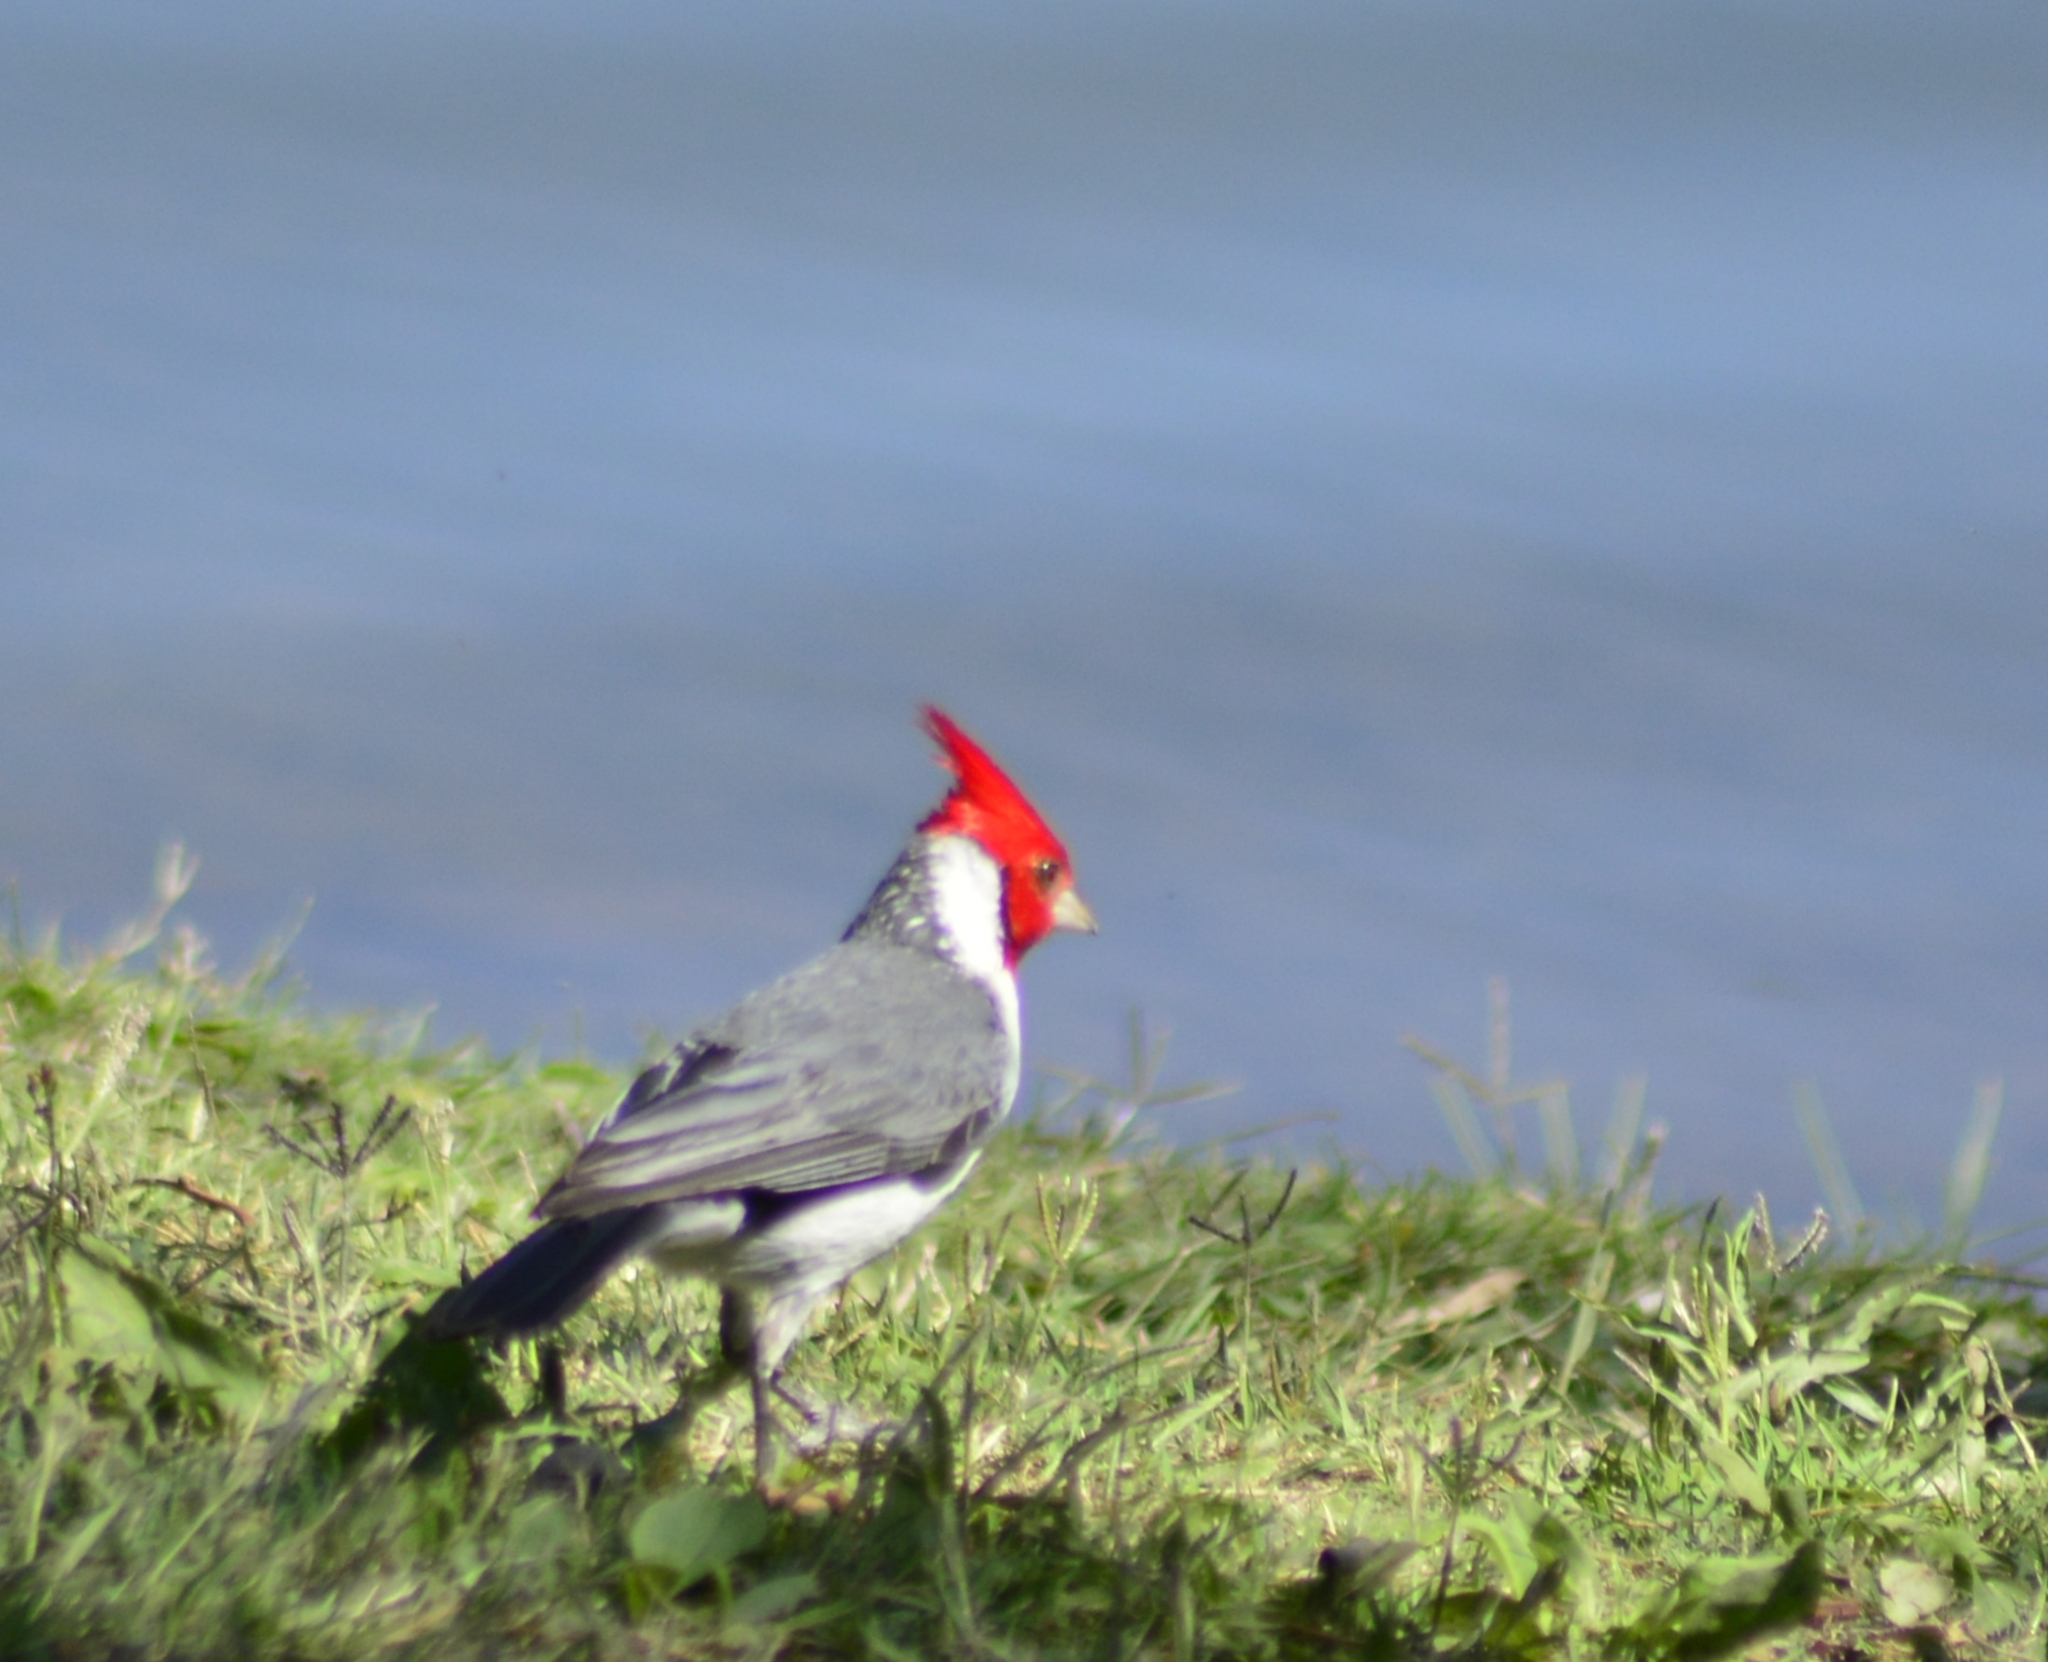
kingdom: Animalia
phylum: Chordata
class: Aves
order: Passeriformes
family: Thraupidae
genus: Paroaria
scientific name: Paroaria coronata
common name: Red-crested cardinal
